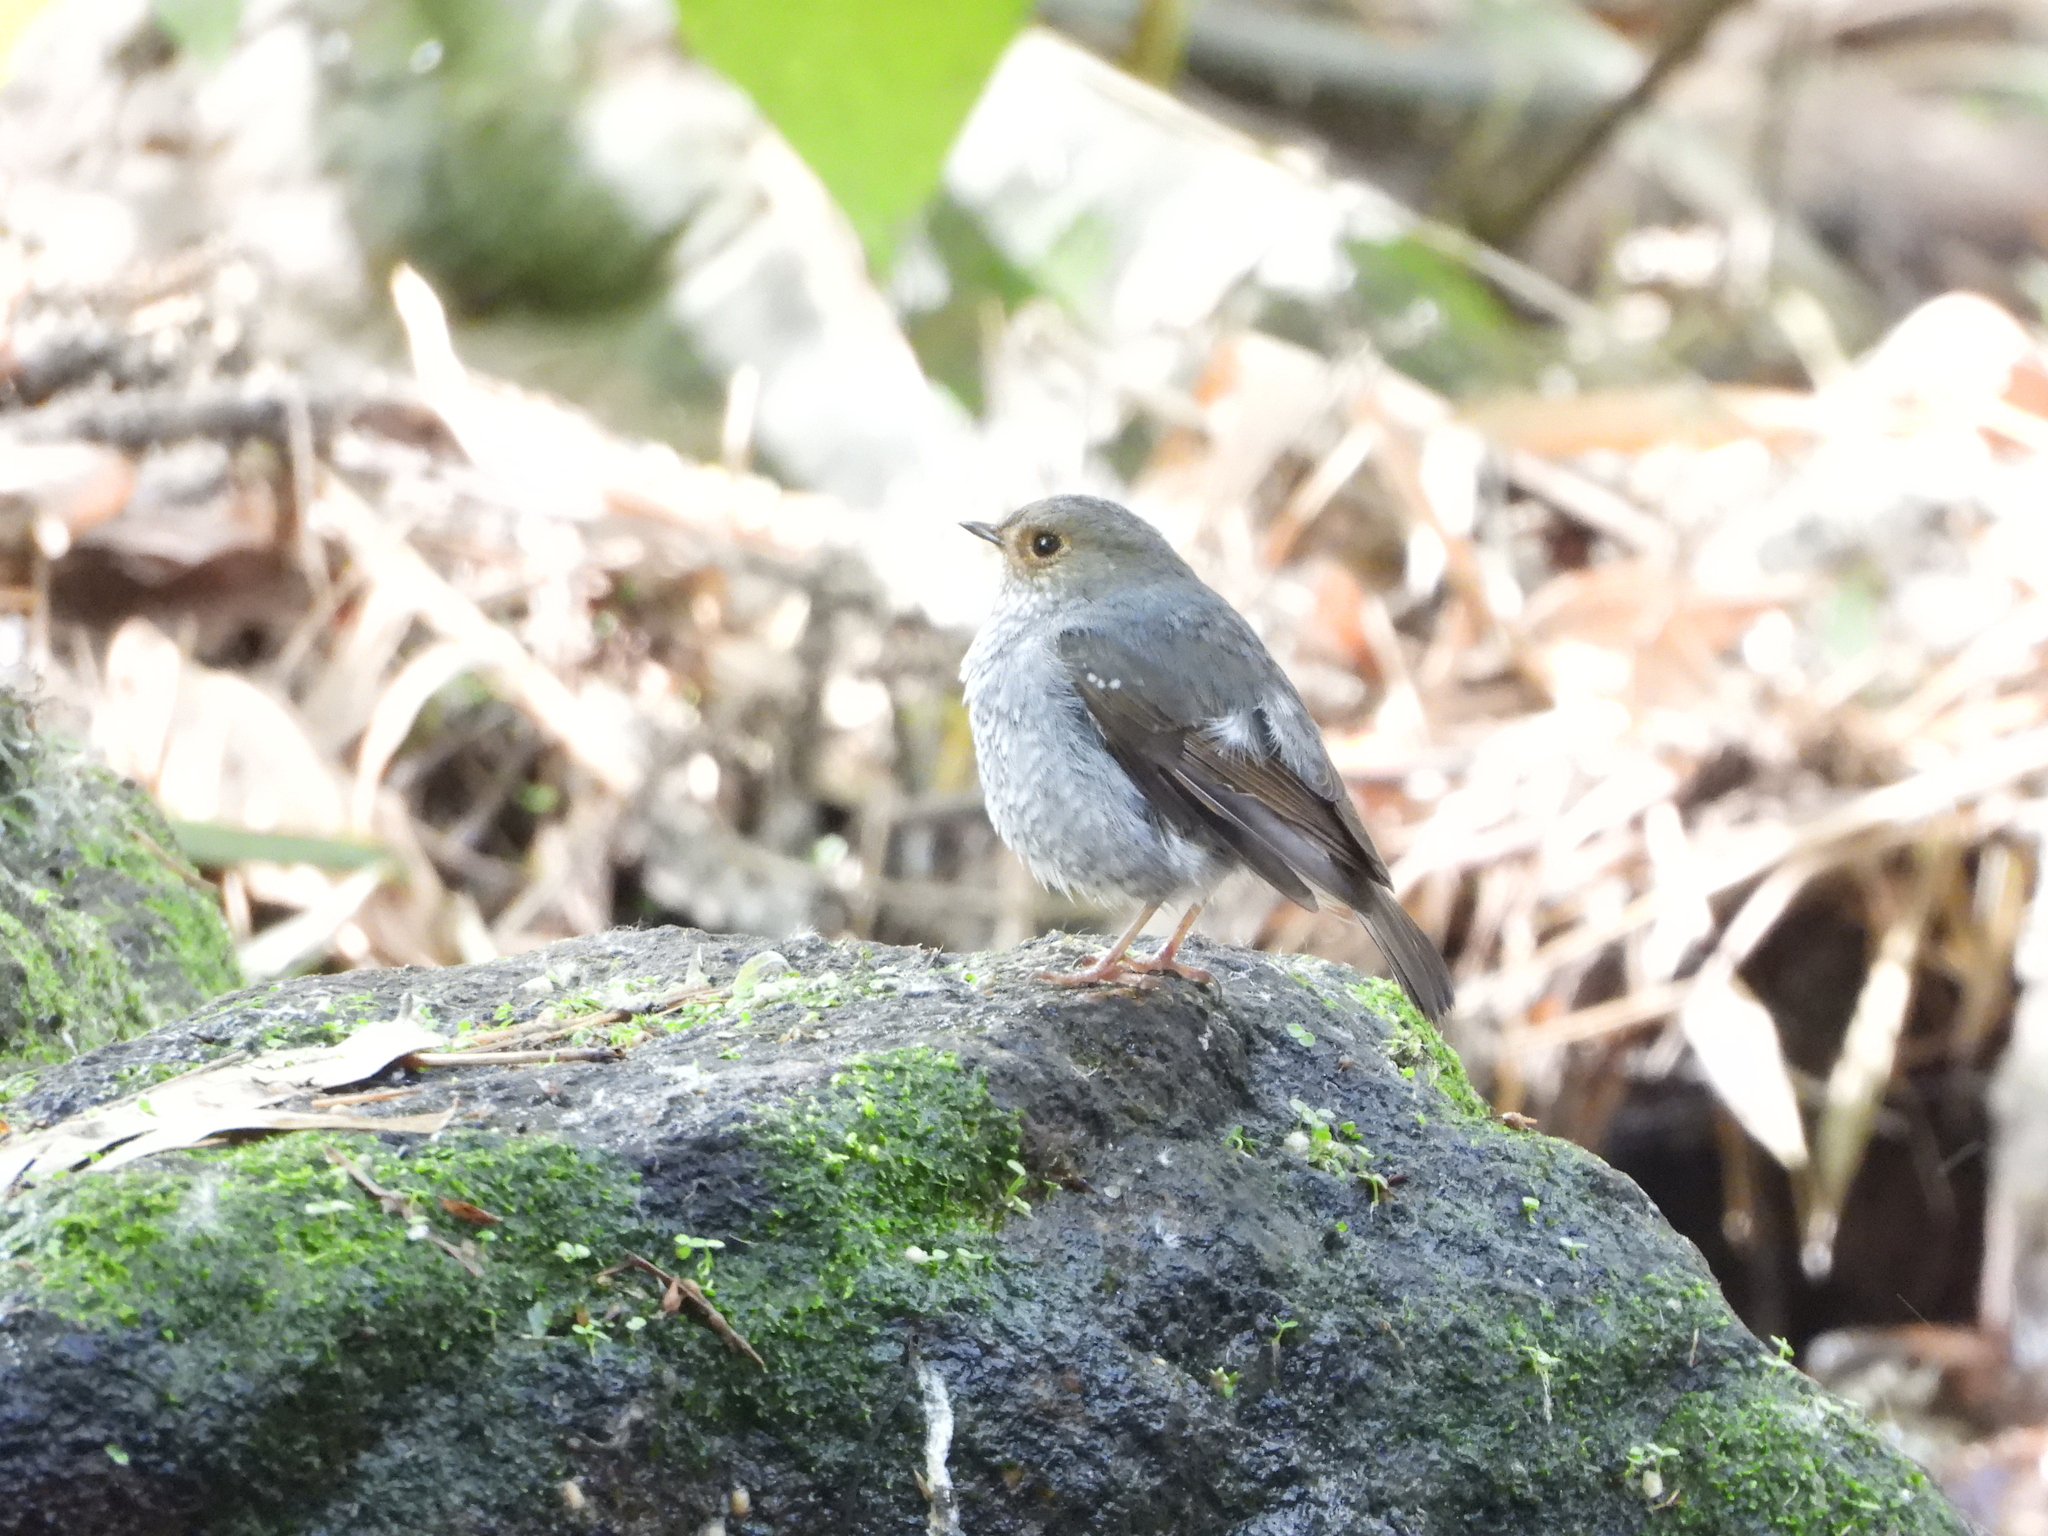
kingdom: Animalia
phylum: Chordata
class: Aves
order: Passeriformes
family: Muscicapidae
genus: Phoenicurus
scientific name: Phoenicurus fuliginosus
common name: Plumbeous water redstart
